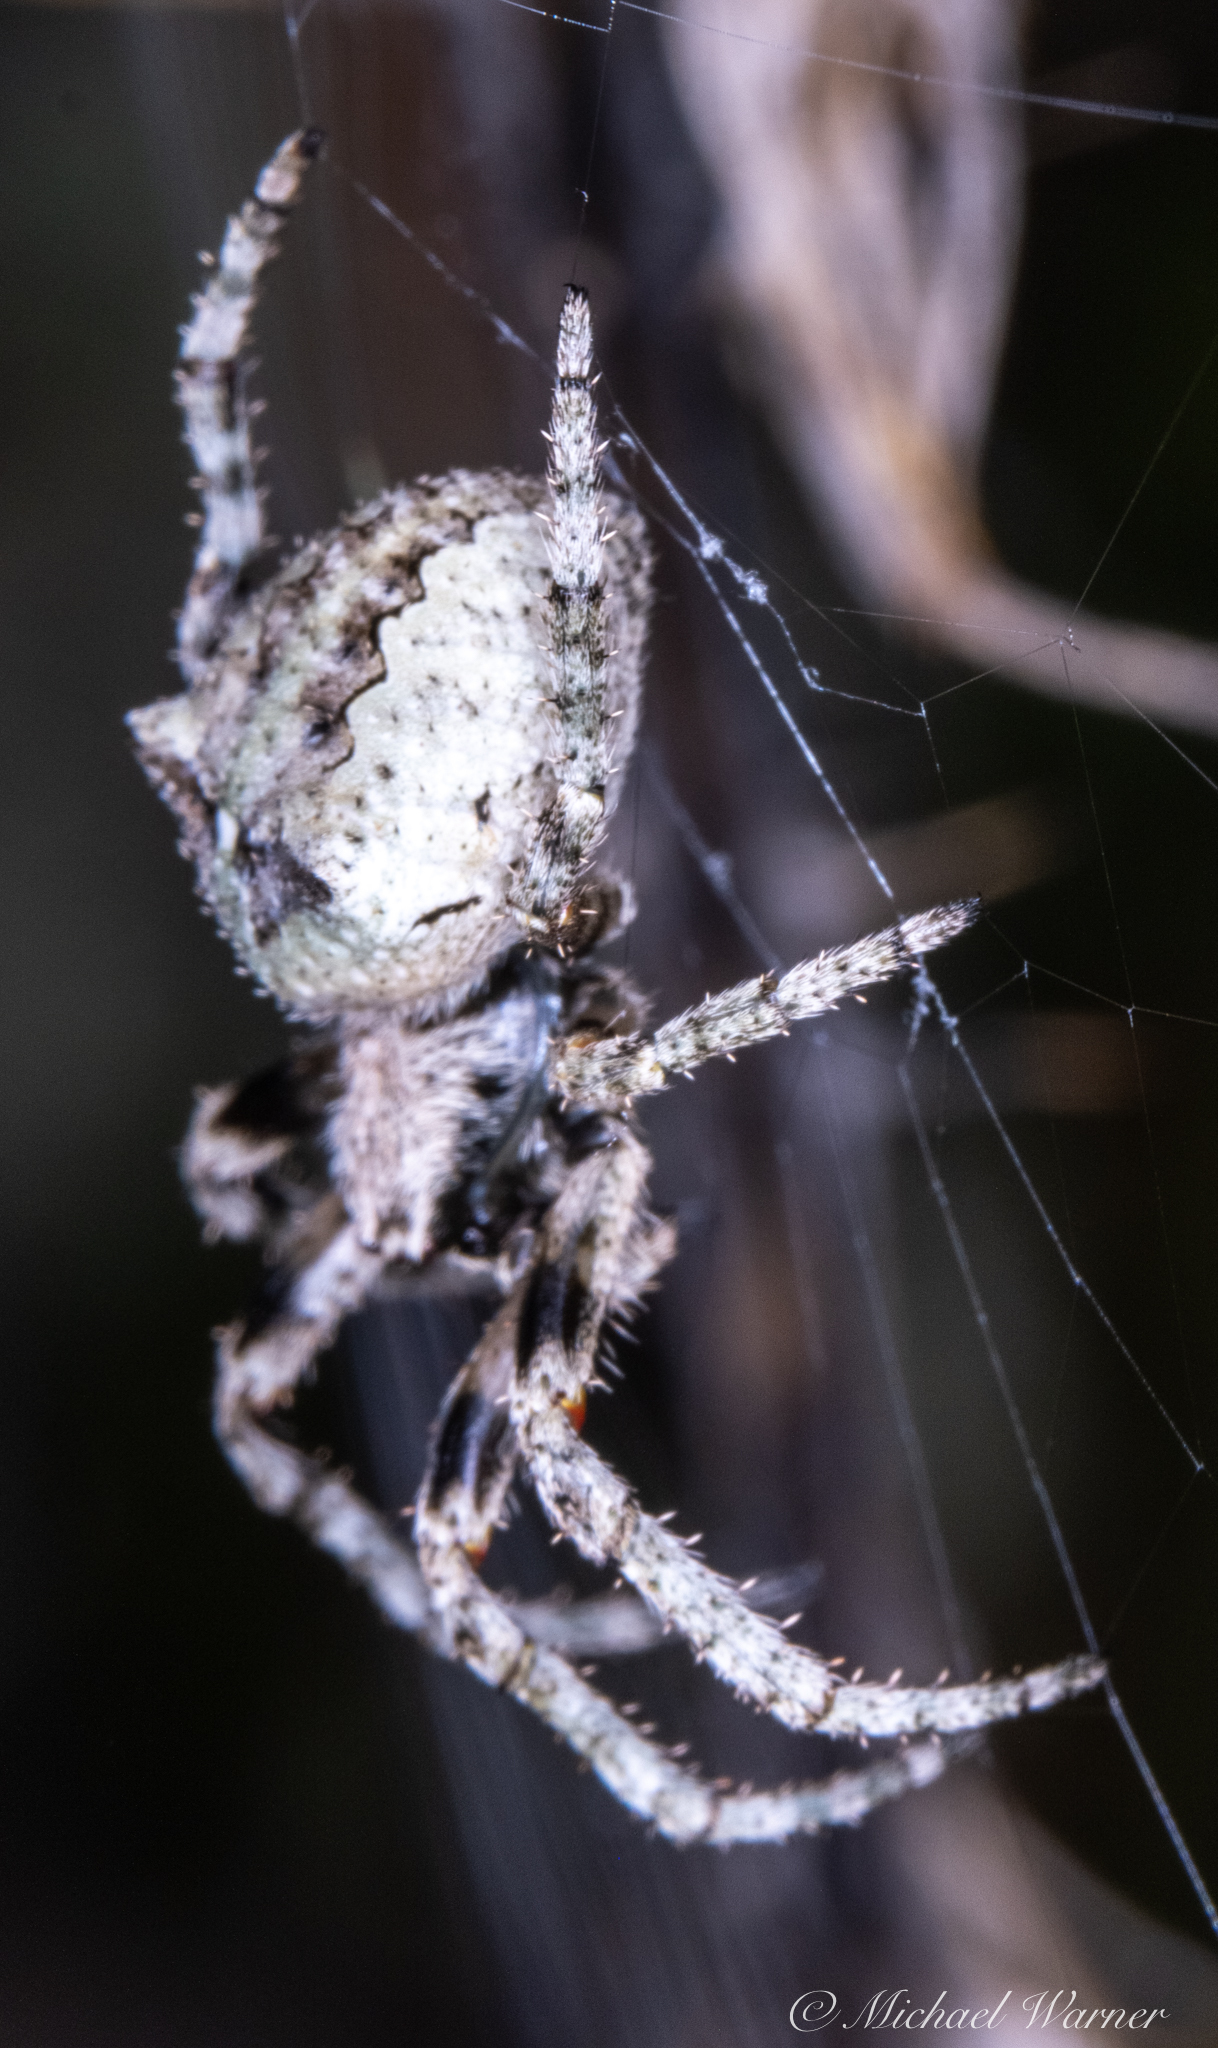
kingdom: Animalia
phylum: Arthropoda
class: Arachnida
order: Araneae
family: Araneidae
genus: Araneus
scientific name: Araneus andrewsi
